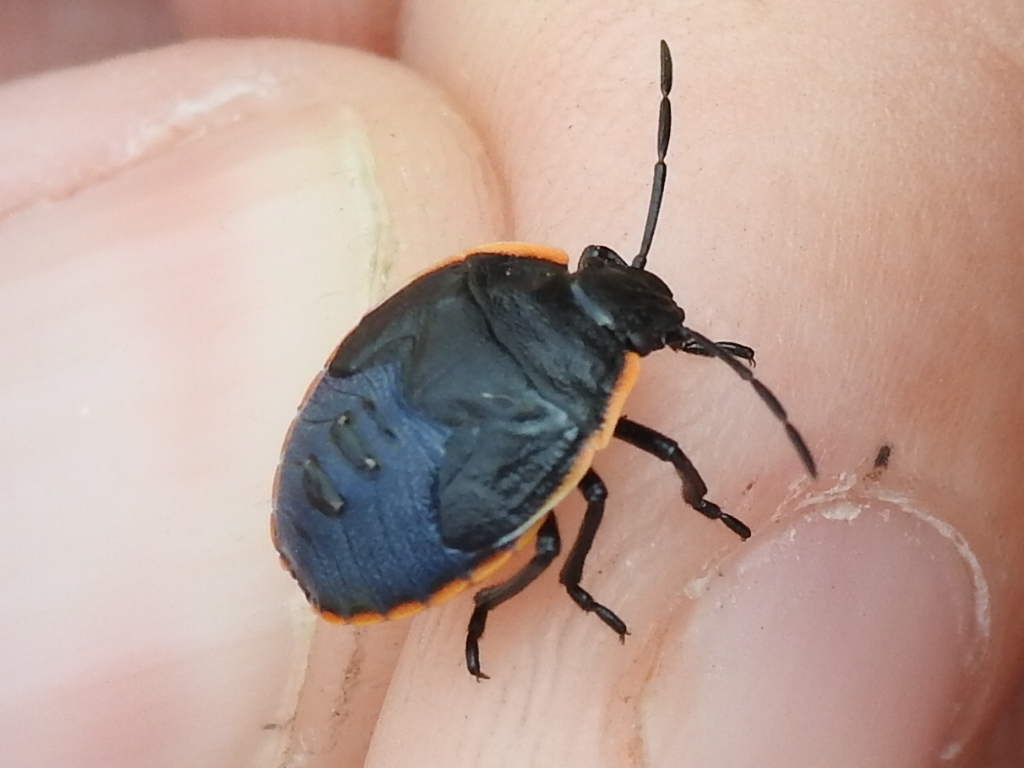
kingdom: Animalia
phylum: Arthropoda
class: Insecta
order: Hemiptera
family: Pentatomidae
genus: Chlorochroa
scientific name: Chlorochroa ligata
